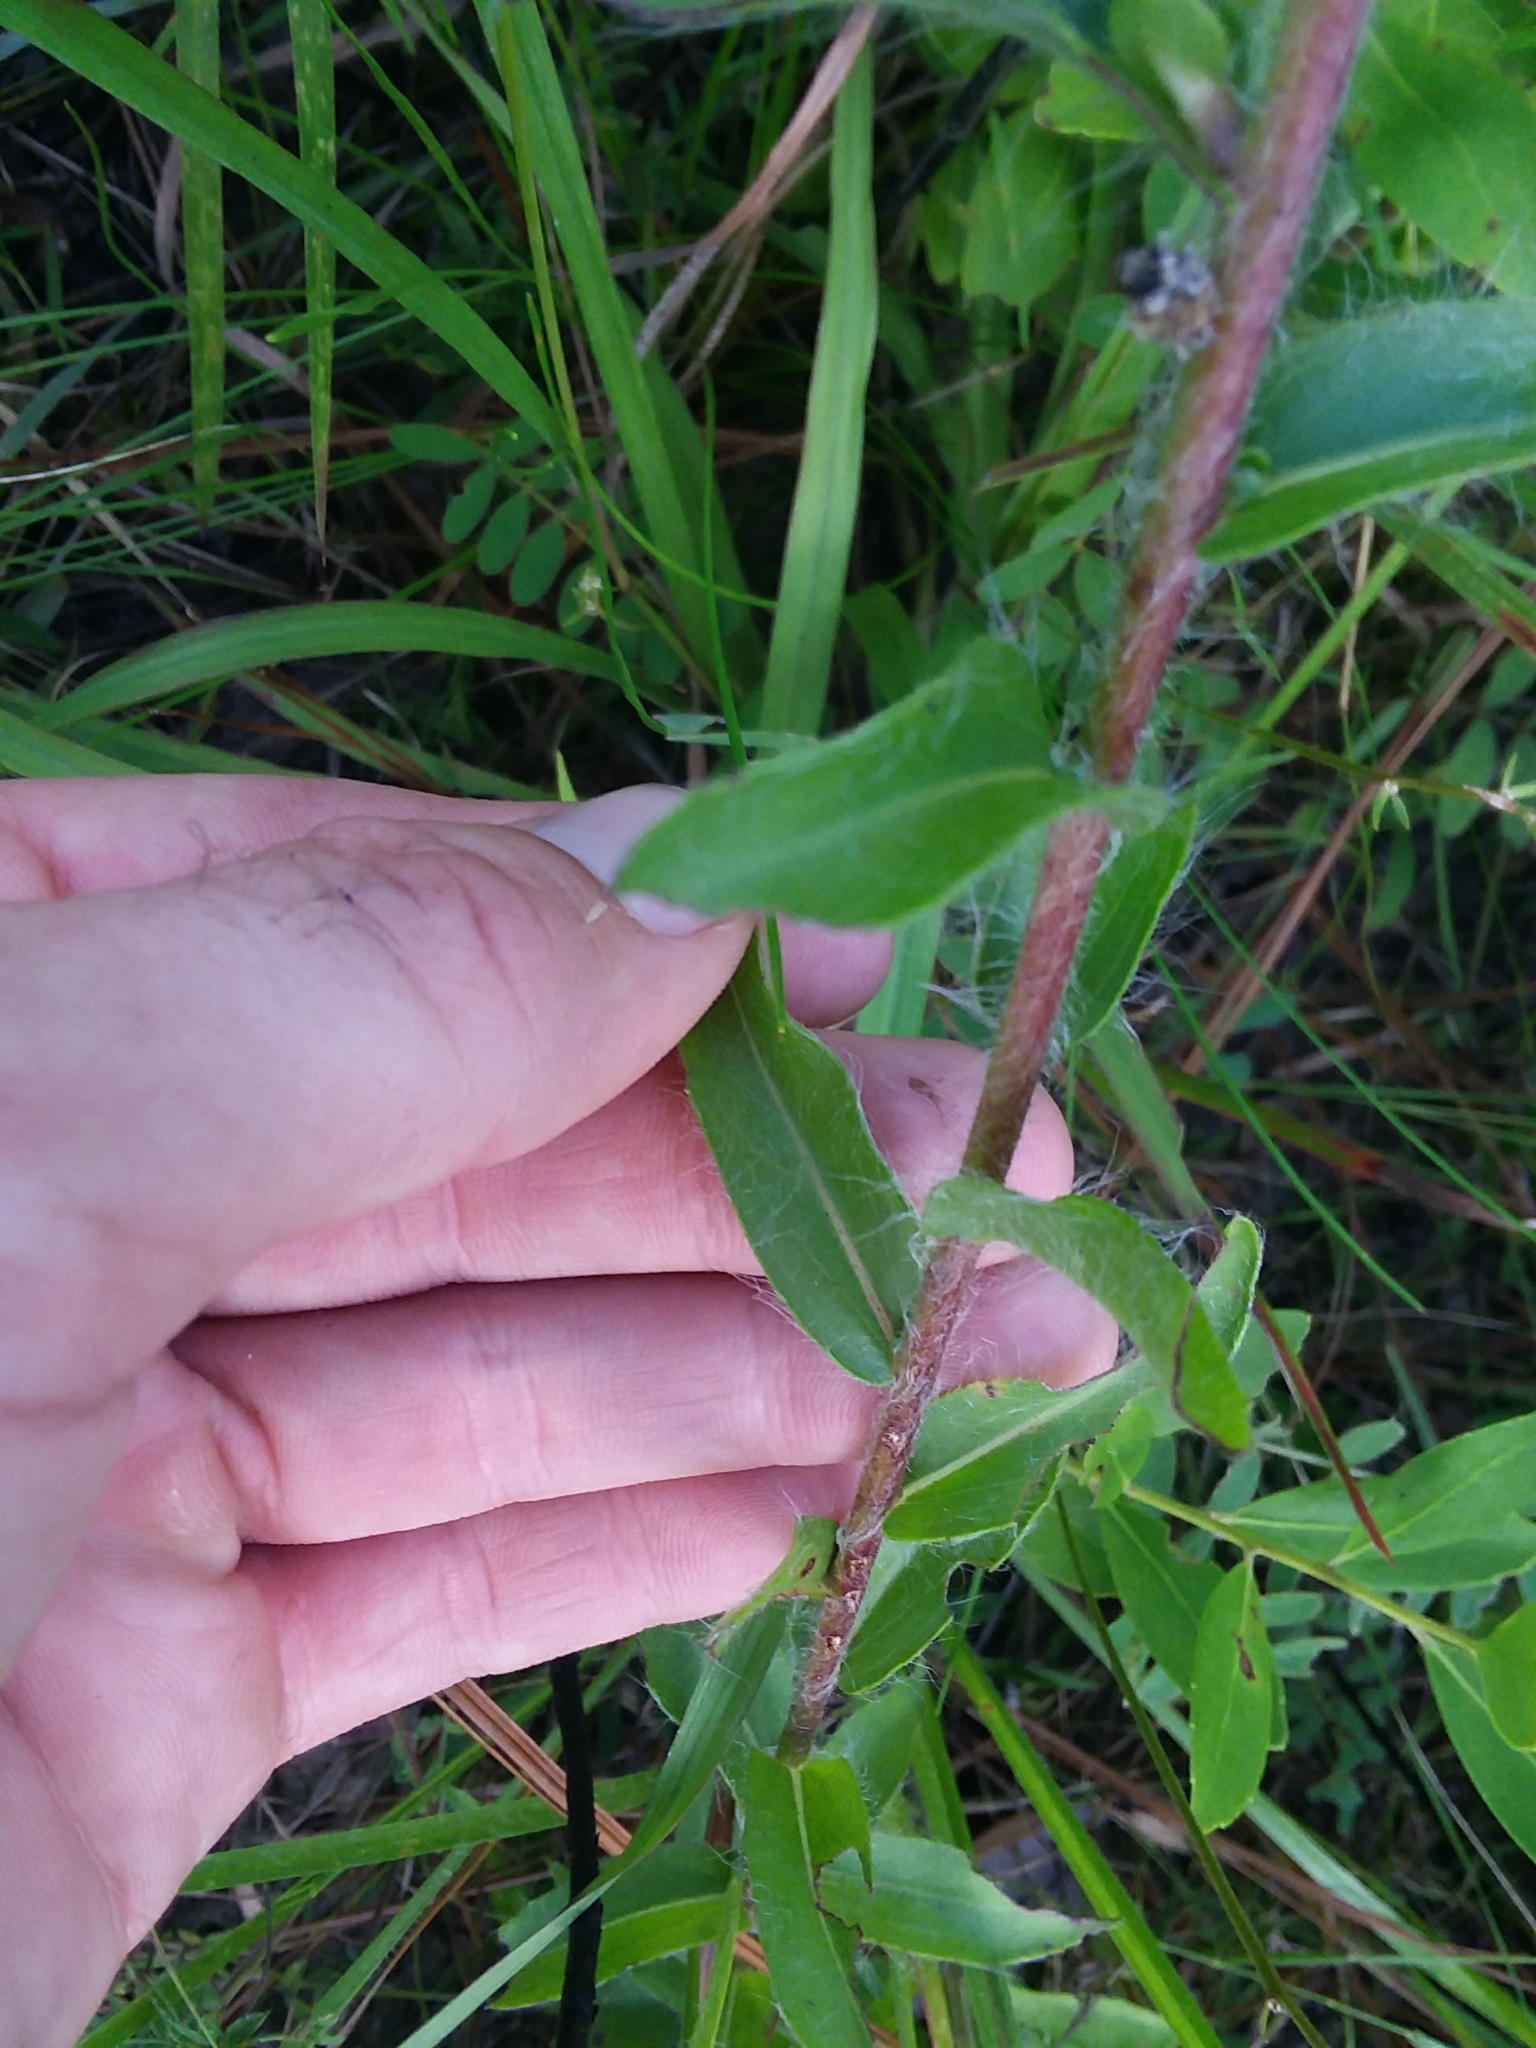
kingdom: Plantae
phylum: Tracheophyta
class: Magnoliopsida
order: Asterales
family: Asteraceae
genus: Chrysopsis
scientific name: Chrysopsis mariana
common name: Maryland golden-aster
